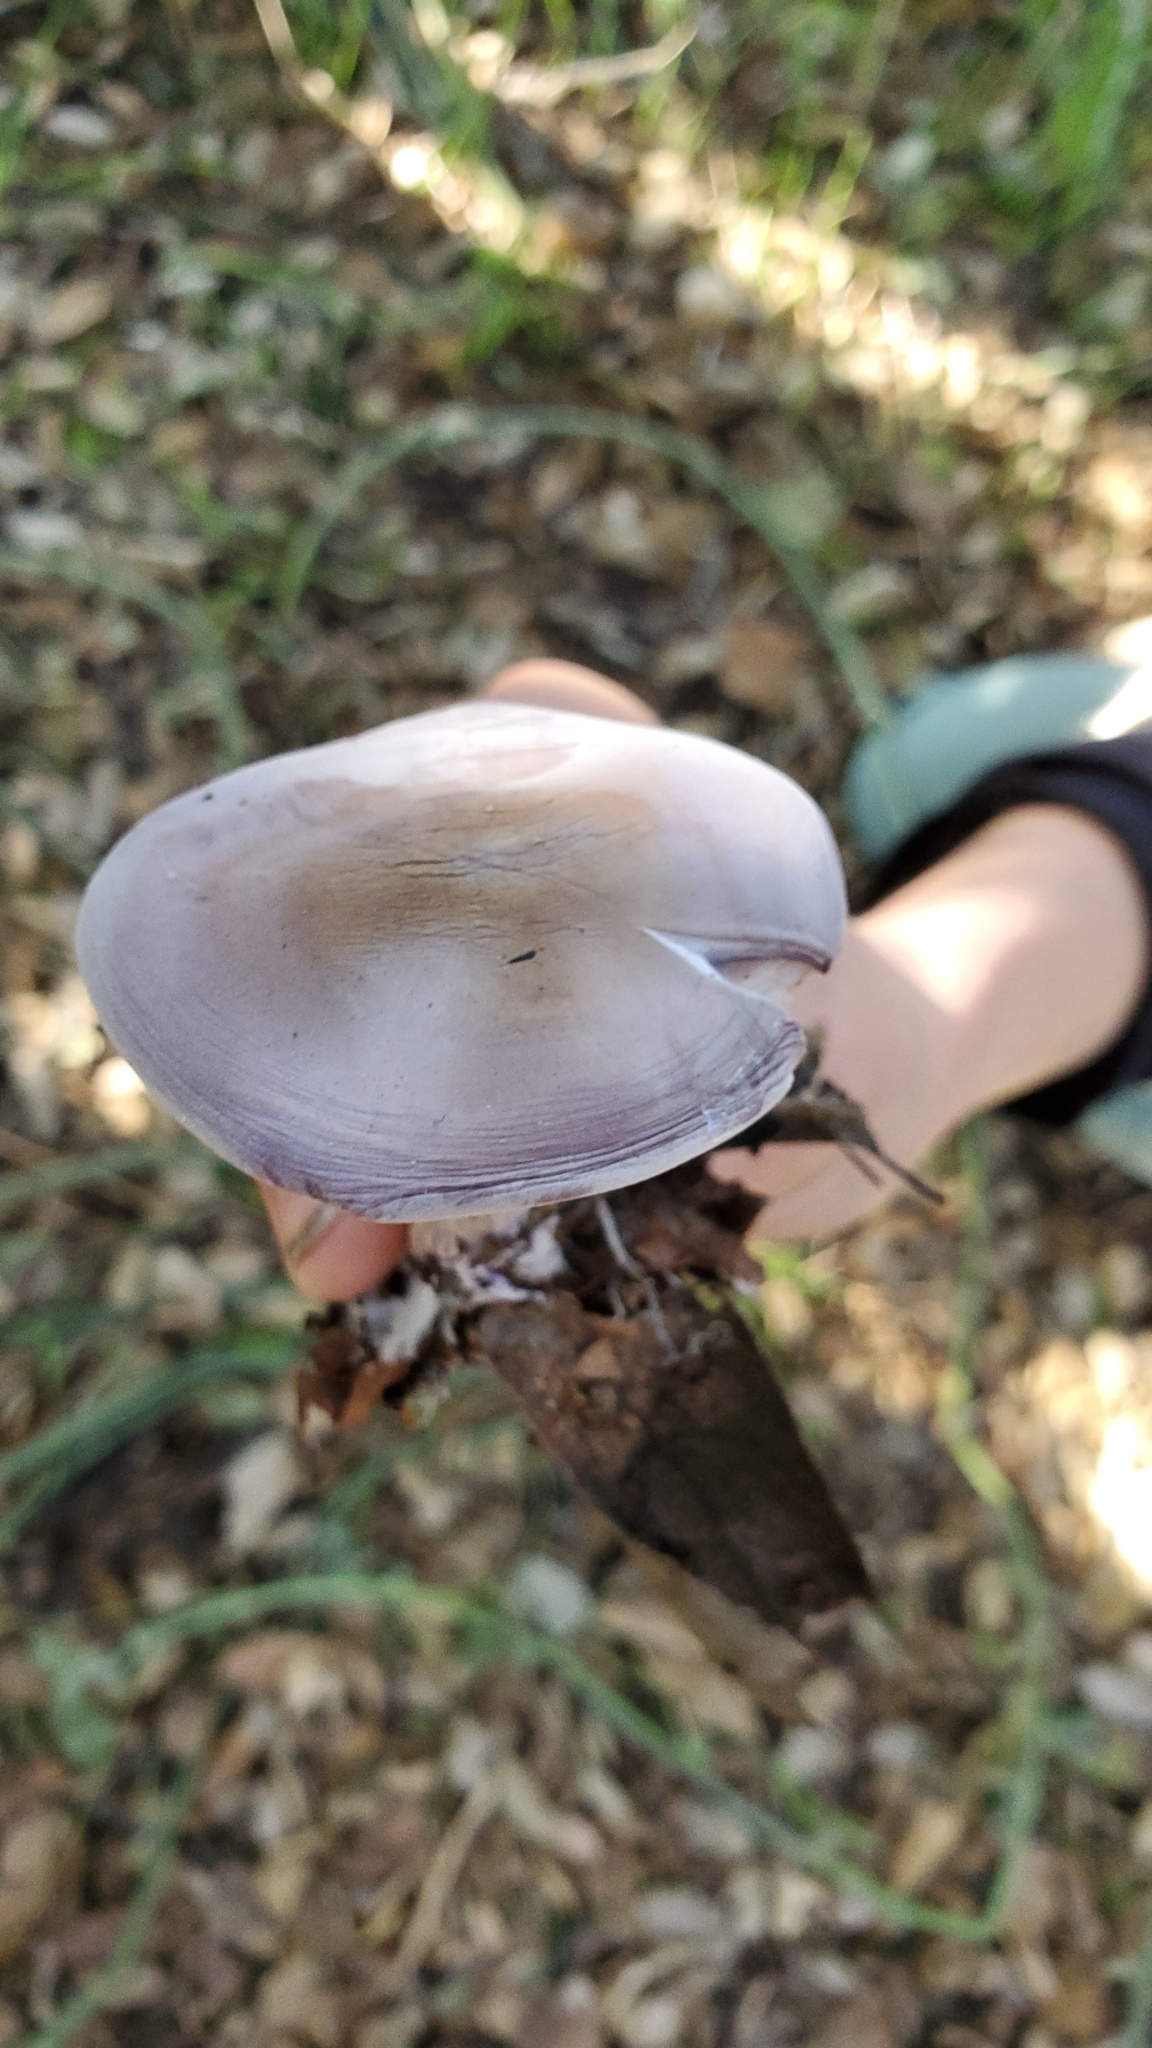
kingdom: Fungi
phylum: Basidiomycota
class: Agaricomycetes
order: Agaricales
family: Tricholomataceae
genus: Collybia
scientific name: Collybia
